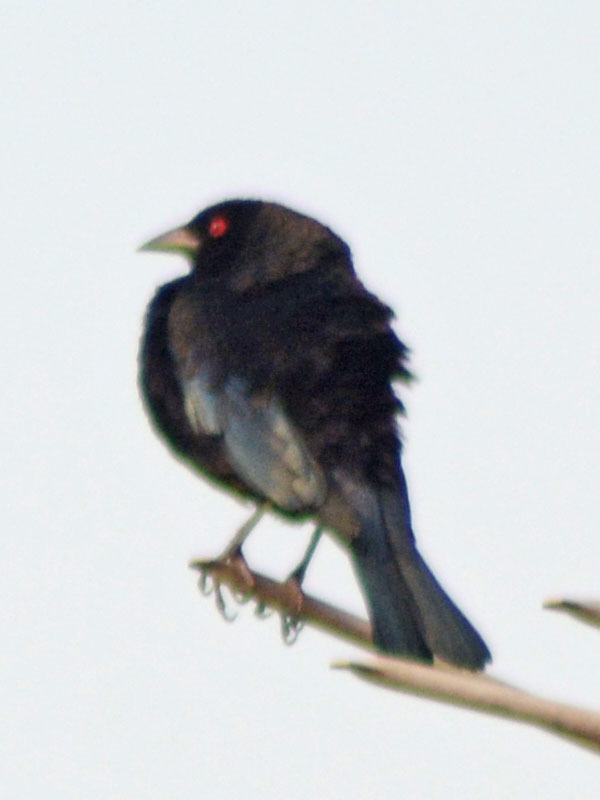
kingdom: Animalia
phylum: Chordata
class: Aves
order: Passeriformes
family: Icteridae
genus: Molothrus
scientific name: Molothrus aeneus
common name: Bronzed cowbird
